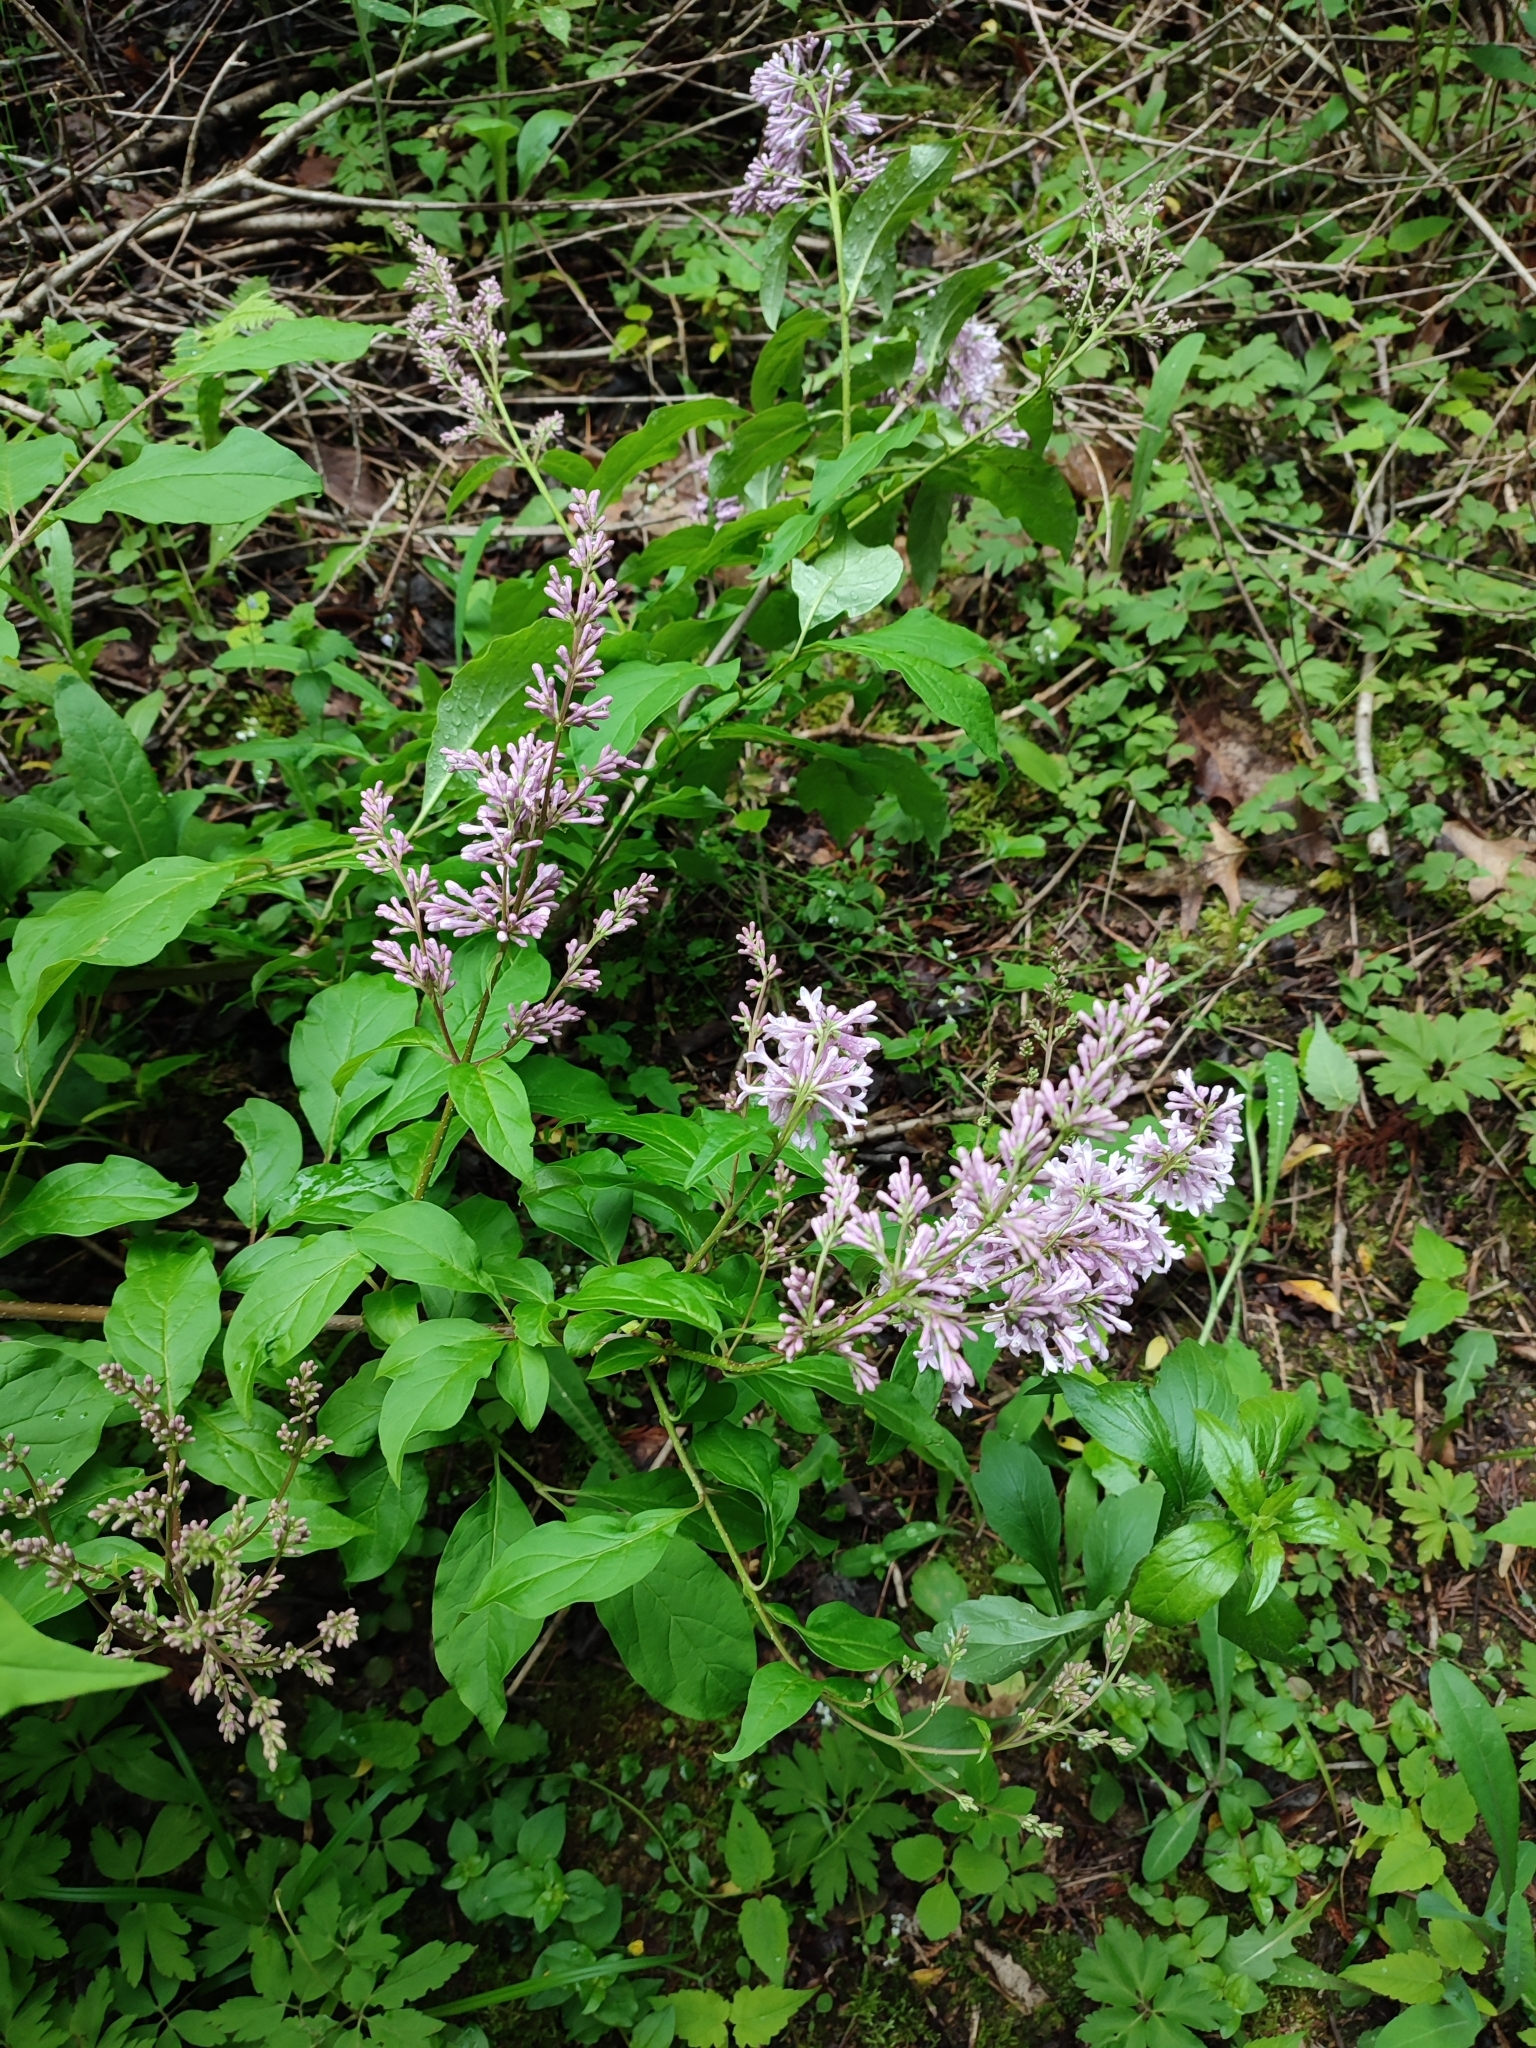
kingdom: Plantae
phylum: Tracheophyta
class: Magnoliopsida
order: Lamiales
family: Oleaceae
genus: Syringa
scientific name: Syringa josikaea
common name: Hungarian lilac
